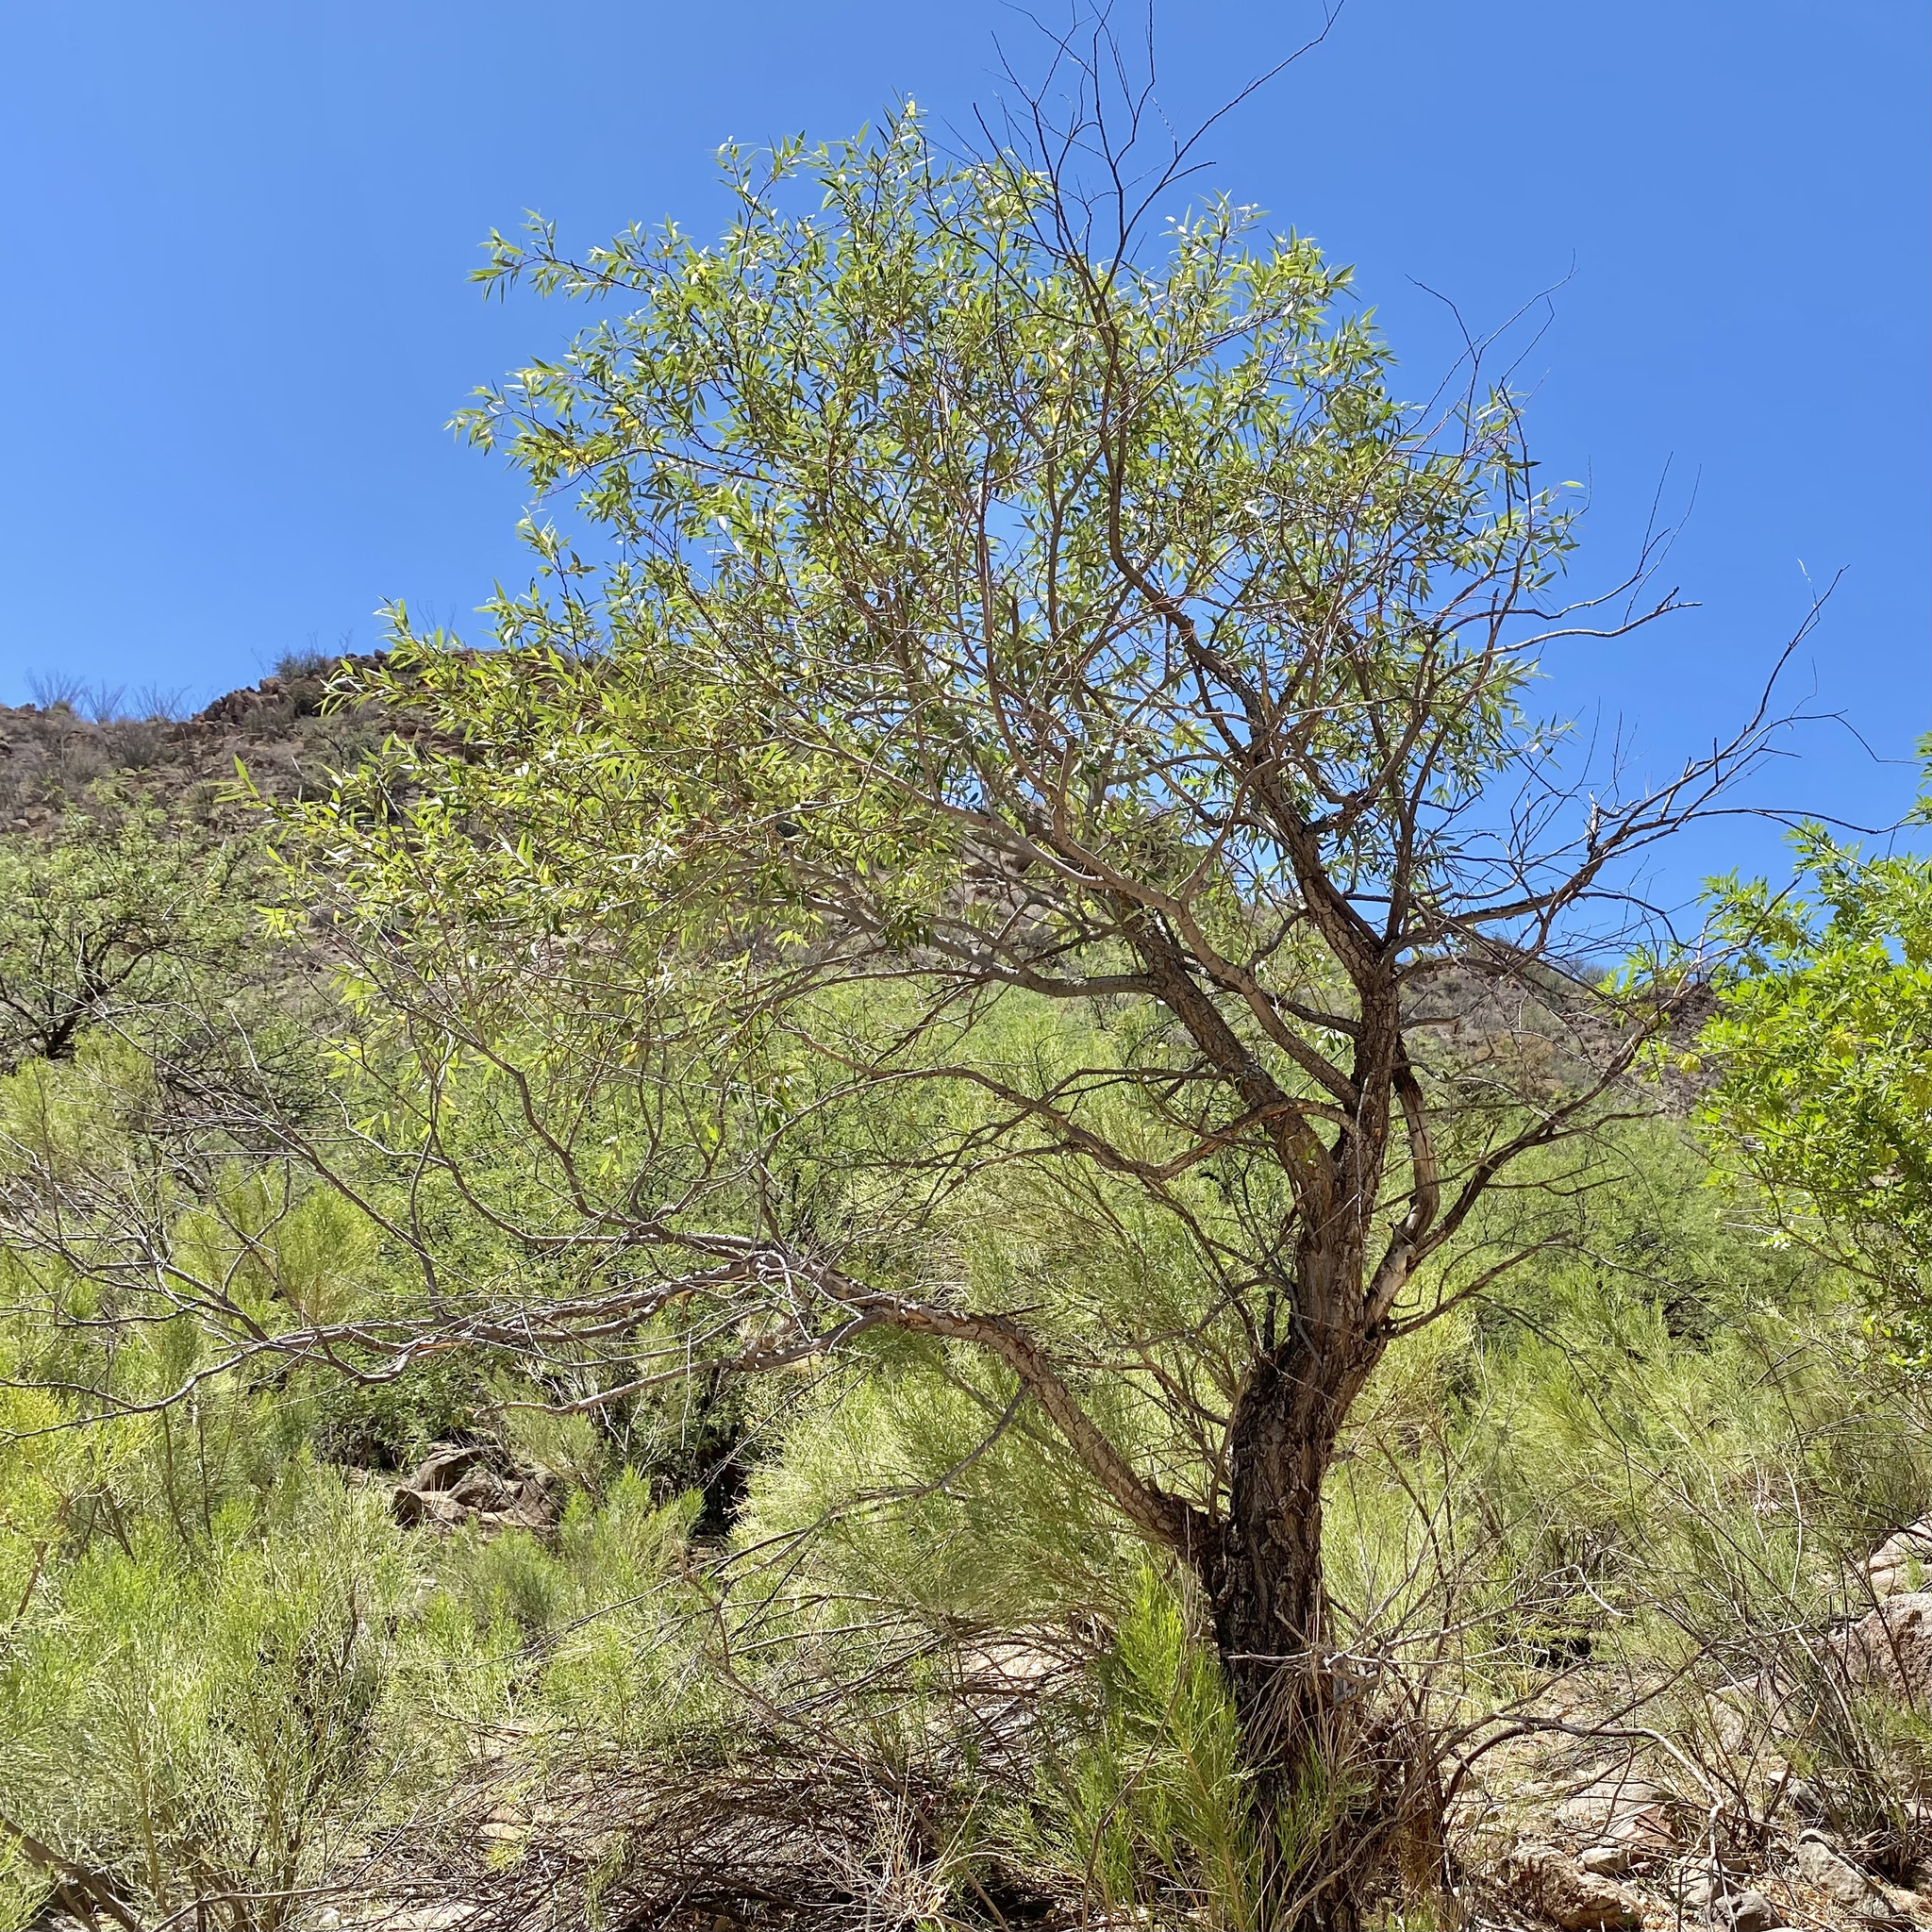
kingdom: Plantae
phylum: Tracheophyta
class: Magnoliopsida
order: Malpighiales
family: Salicaceae
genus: Salix
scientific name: Salix bonplandiana
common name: Bonpland’s willow
